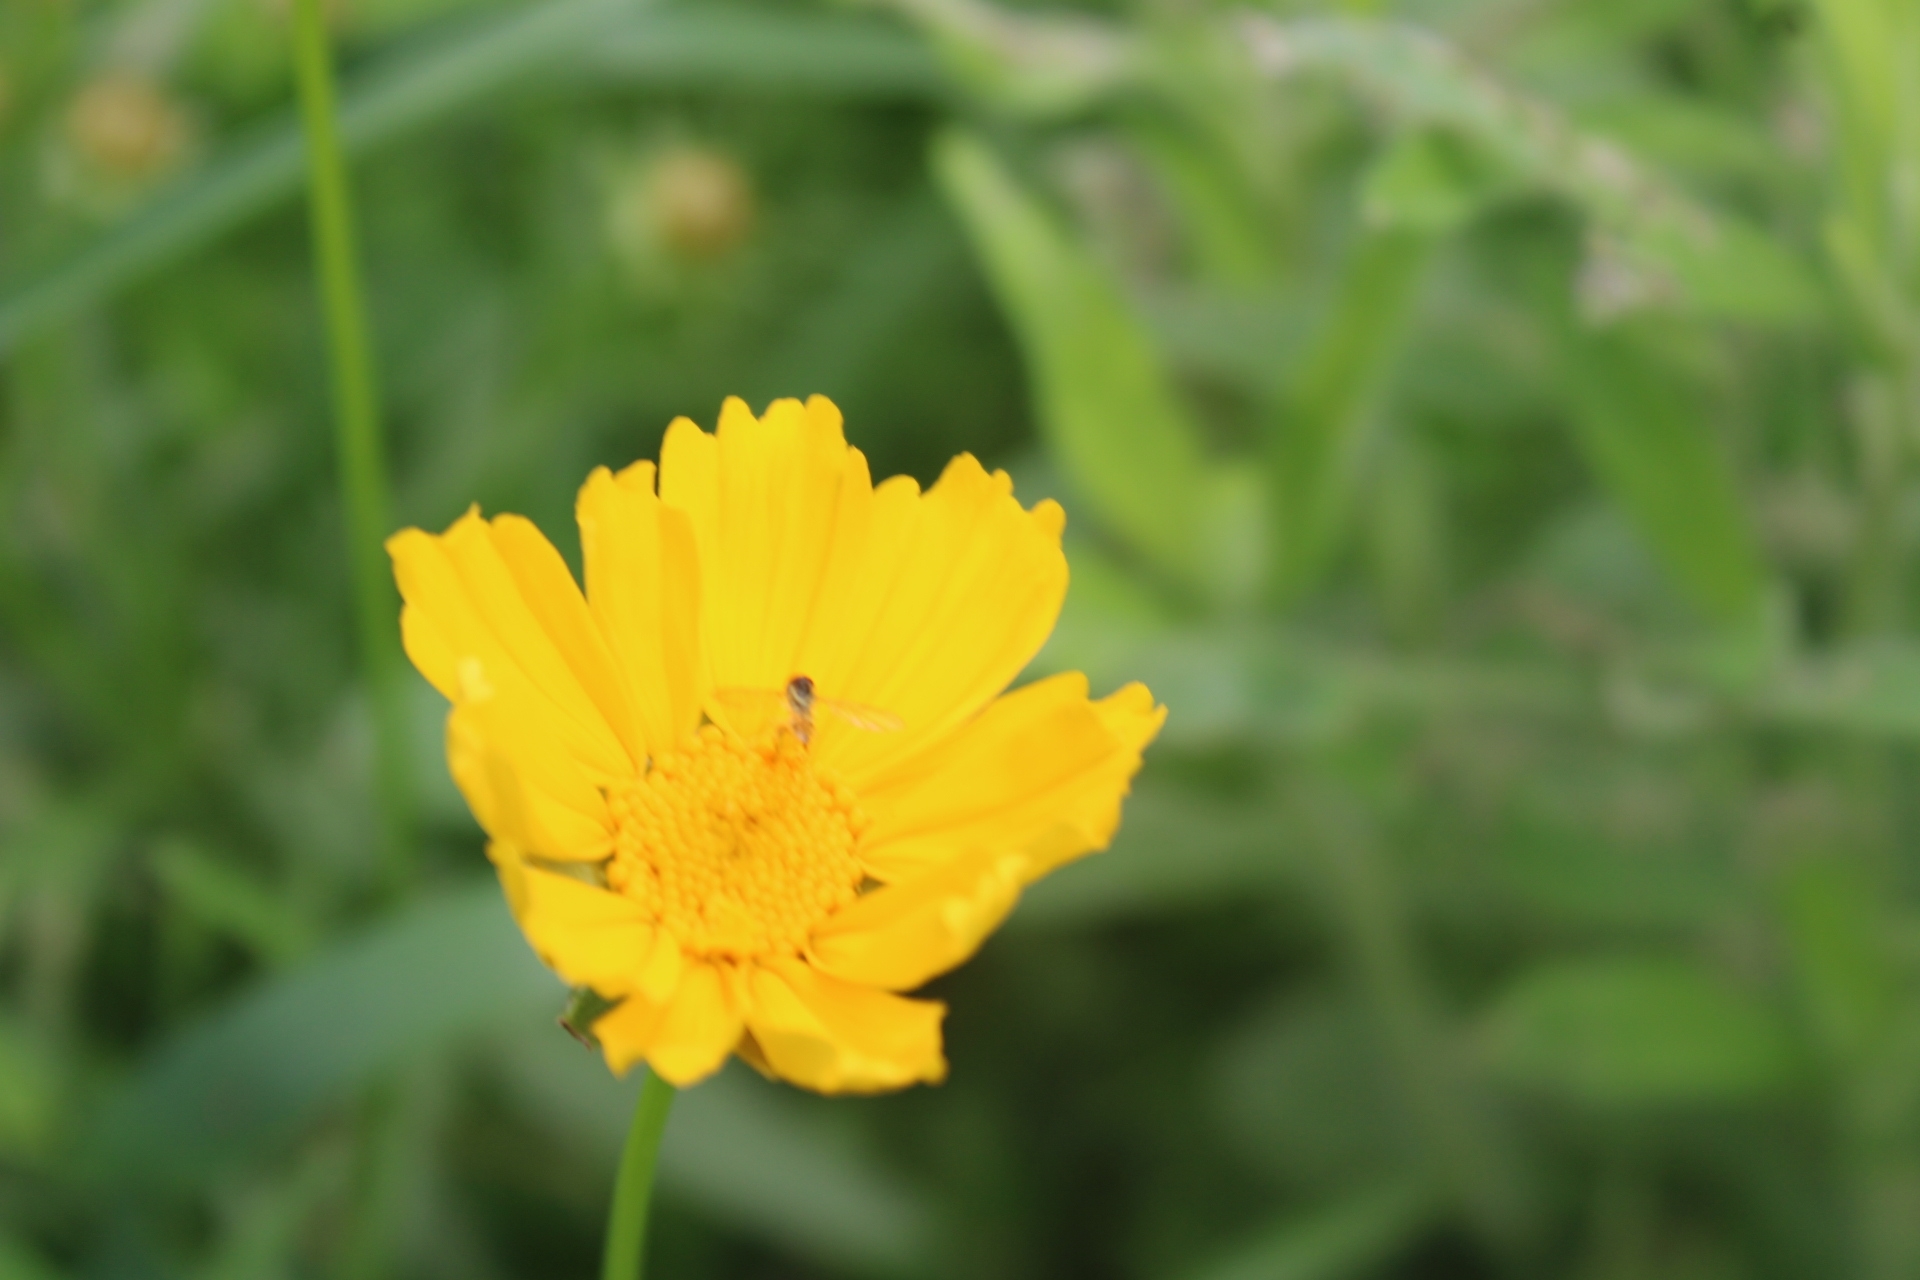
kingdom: Animalia
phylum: Arthropoda
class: Insecta
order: Diptera
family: Syrphidae
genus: Toxomerus
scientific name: Toxomerus geminatus
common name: Eastern calligrapher
